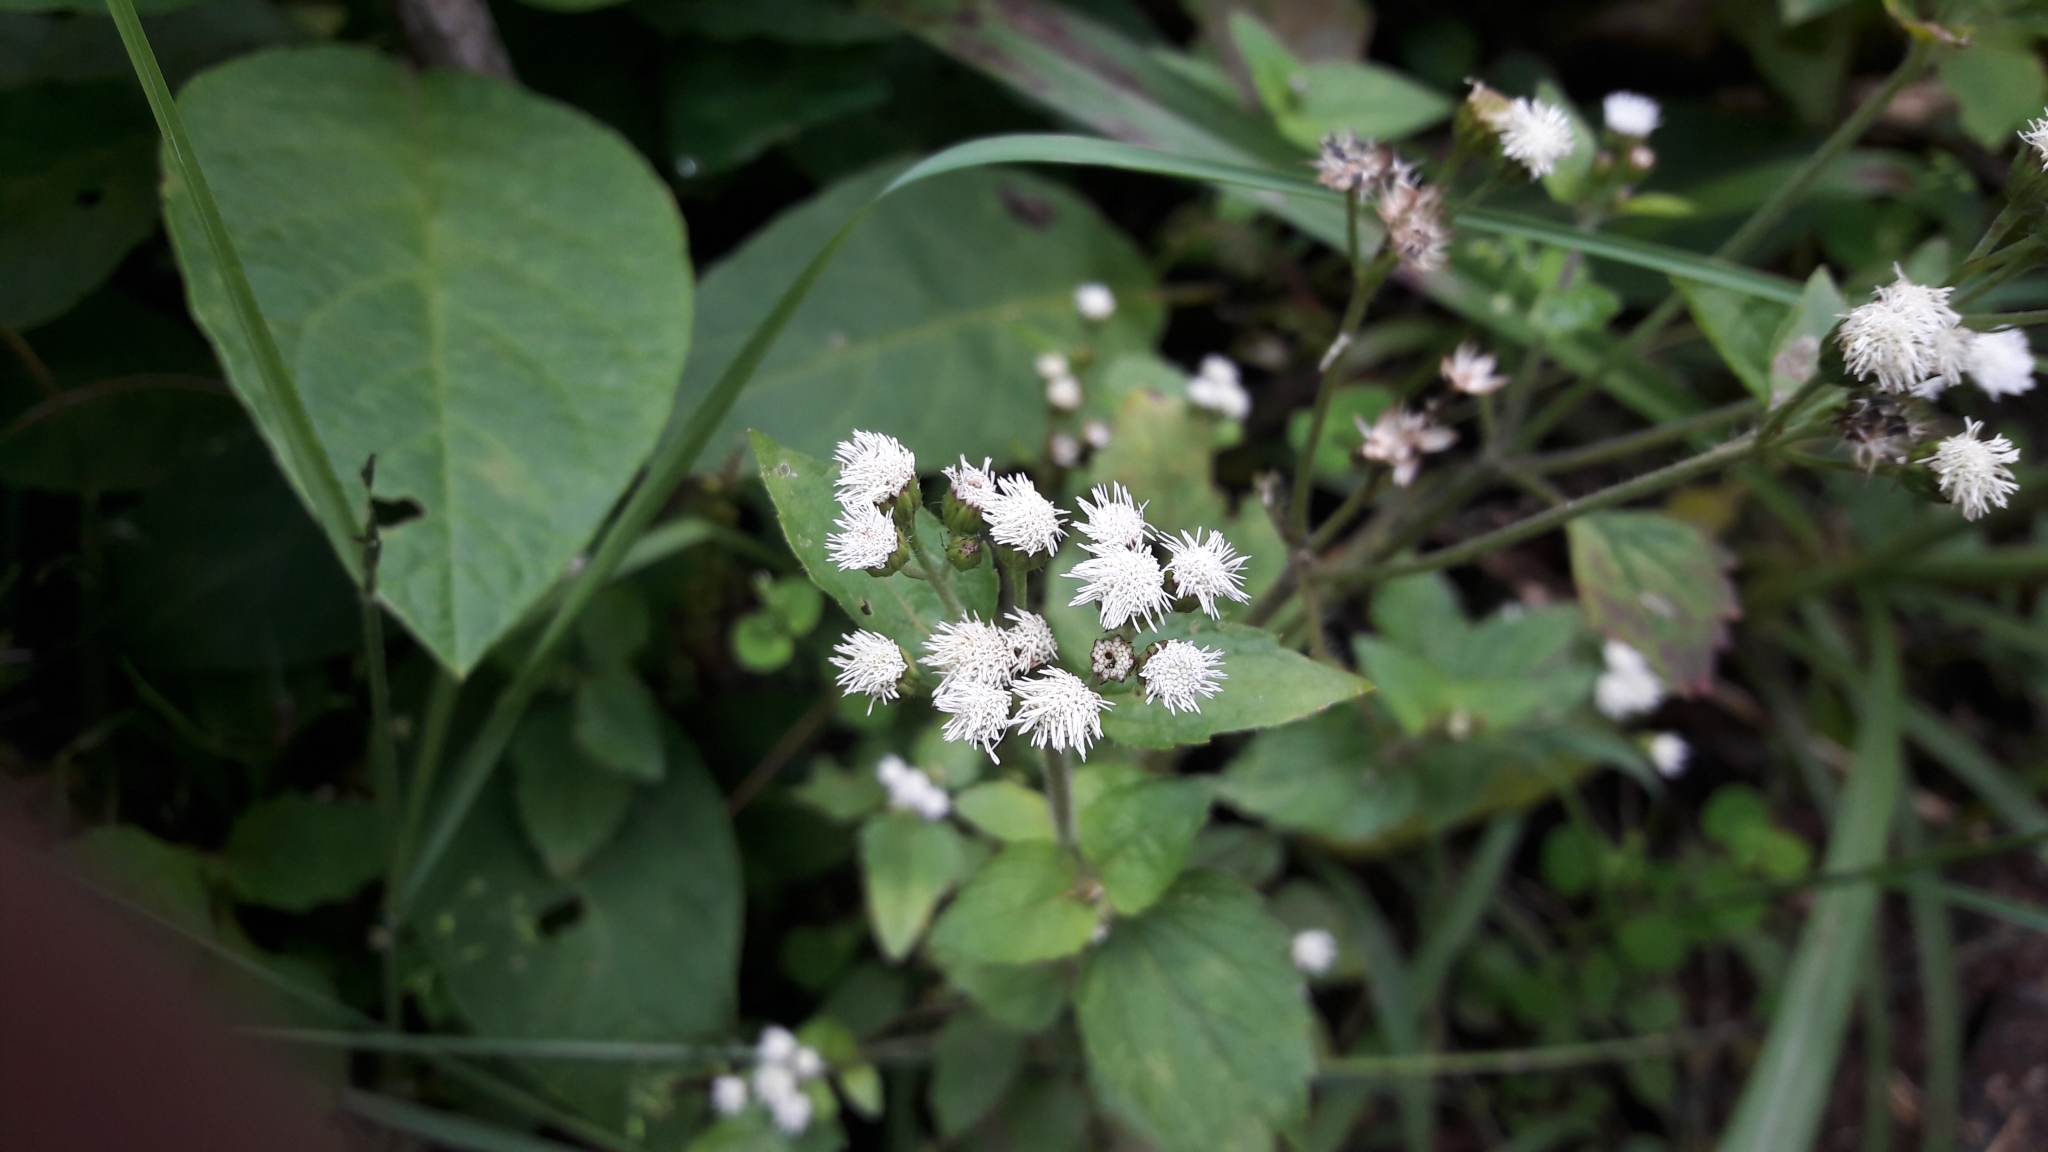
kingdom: Plantae
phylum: Tracheophyta
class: Magnoliopsida
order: Asterales
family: Asteraceae
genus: Ageratum
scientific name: Ageratum conyzoides
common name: Tropical whiteweed
